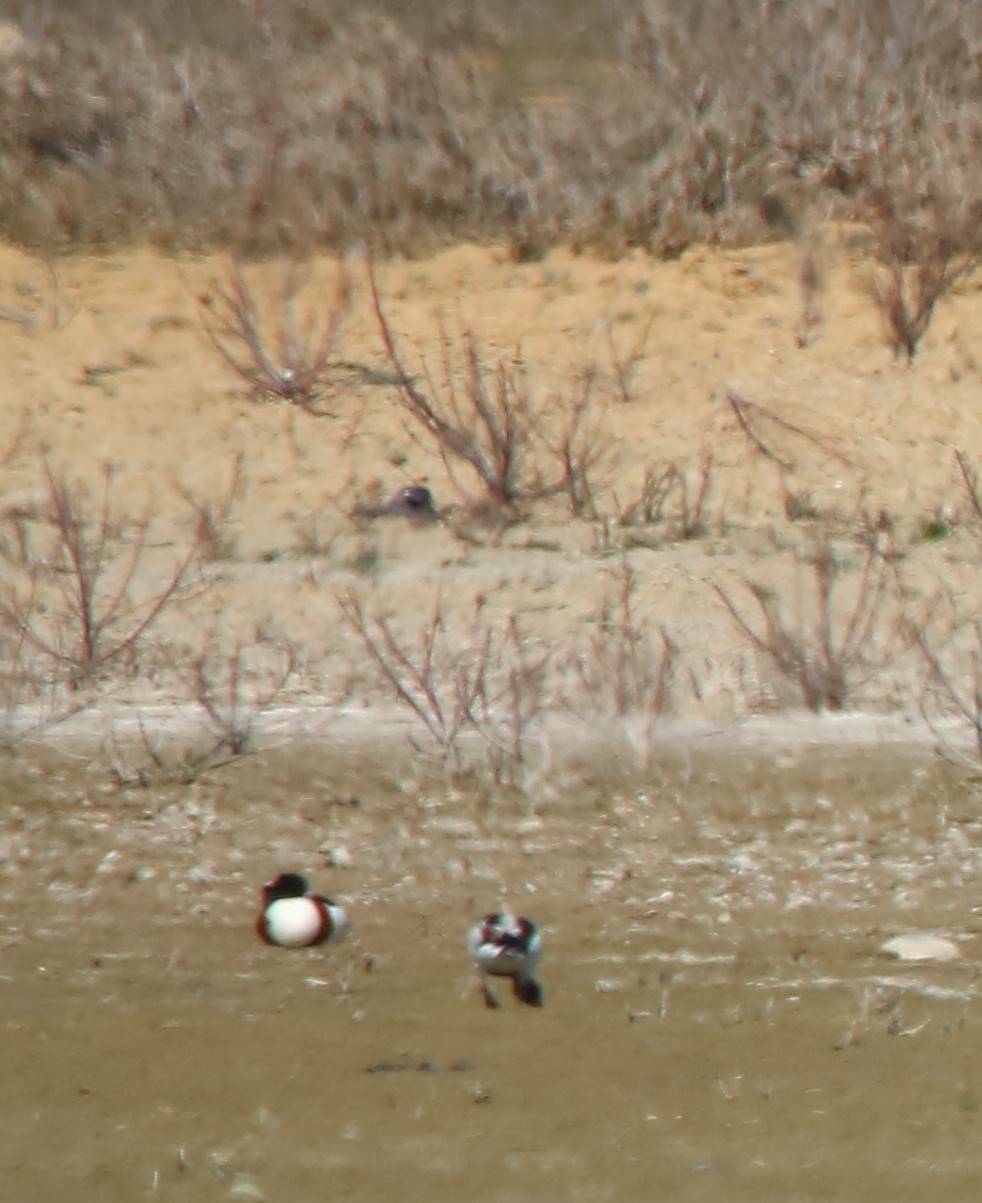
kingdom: Animalia
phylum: Chordata
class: Aves
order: Anseriformes
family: Anatidae
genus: Tadorna
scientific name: Tadorna tadorna
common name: Common shelduck
